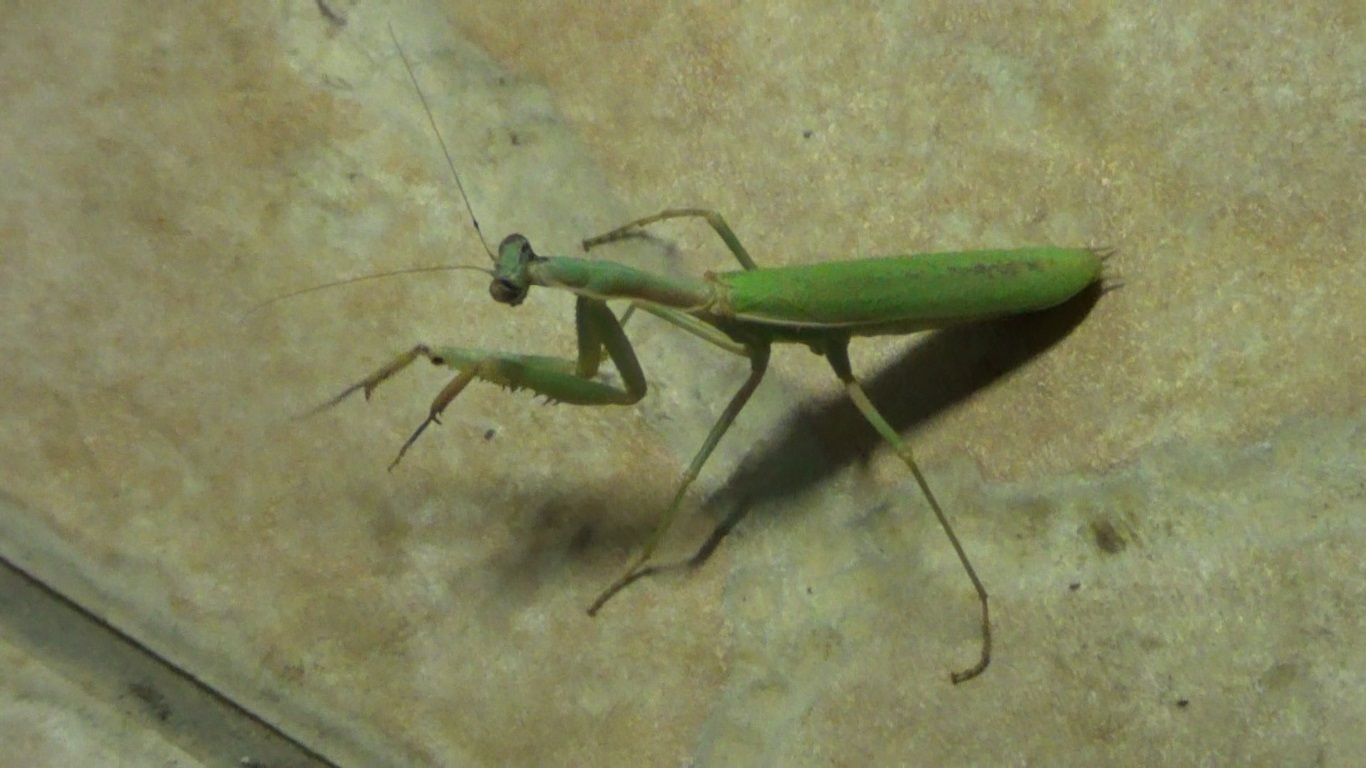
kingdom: Animalia
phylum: Arthropoda
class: Insecta
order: Mantodea
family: Eremiaphilidae
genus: Iris
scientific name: Iris oratoria
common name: Mediterranean mantis
